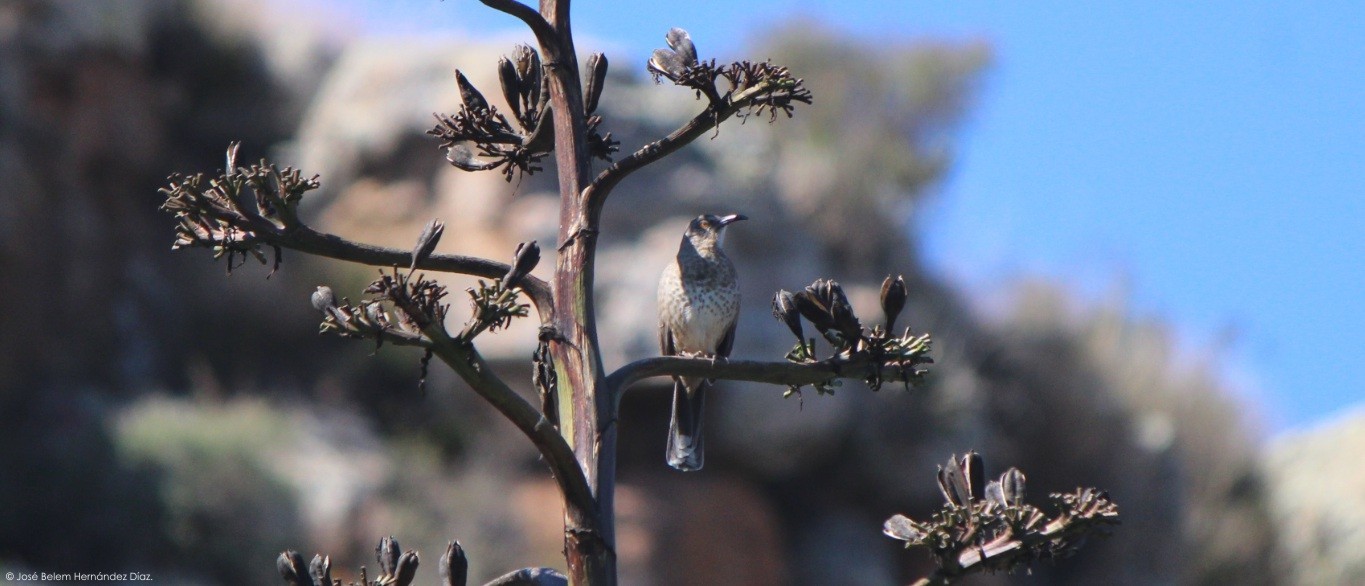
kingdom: Animalia
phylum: Chordata
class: Aves
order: Passeriformes
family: Mimidae
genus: Toxostoma
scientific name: Toxostoma curvirostre
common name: Curve-billed thrasher
